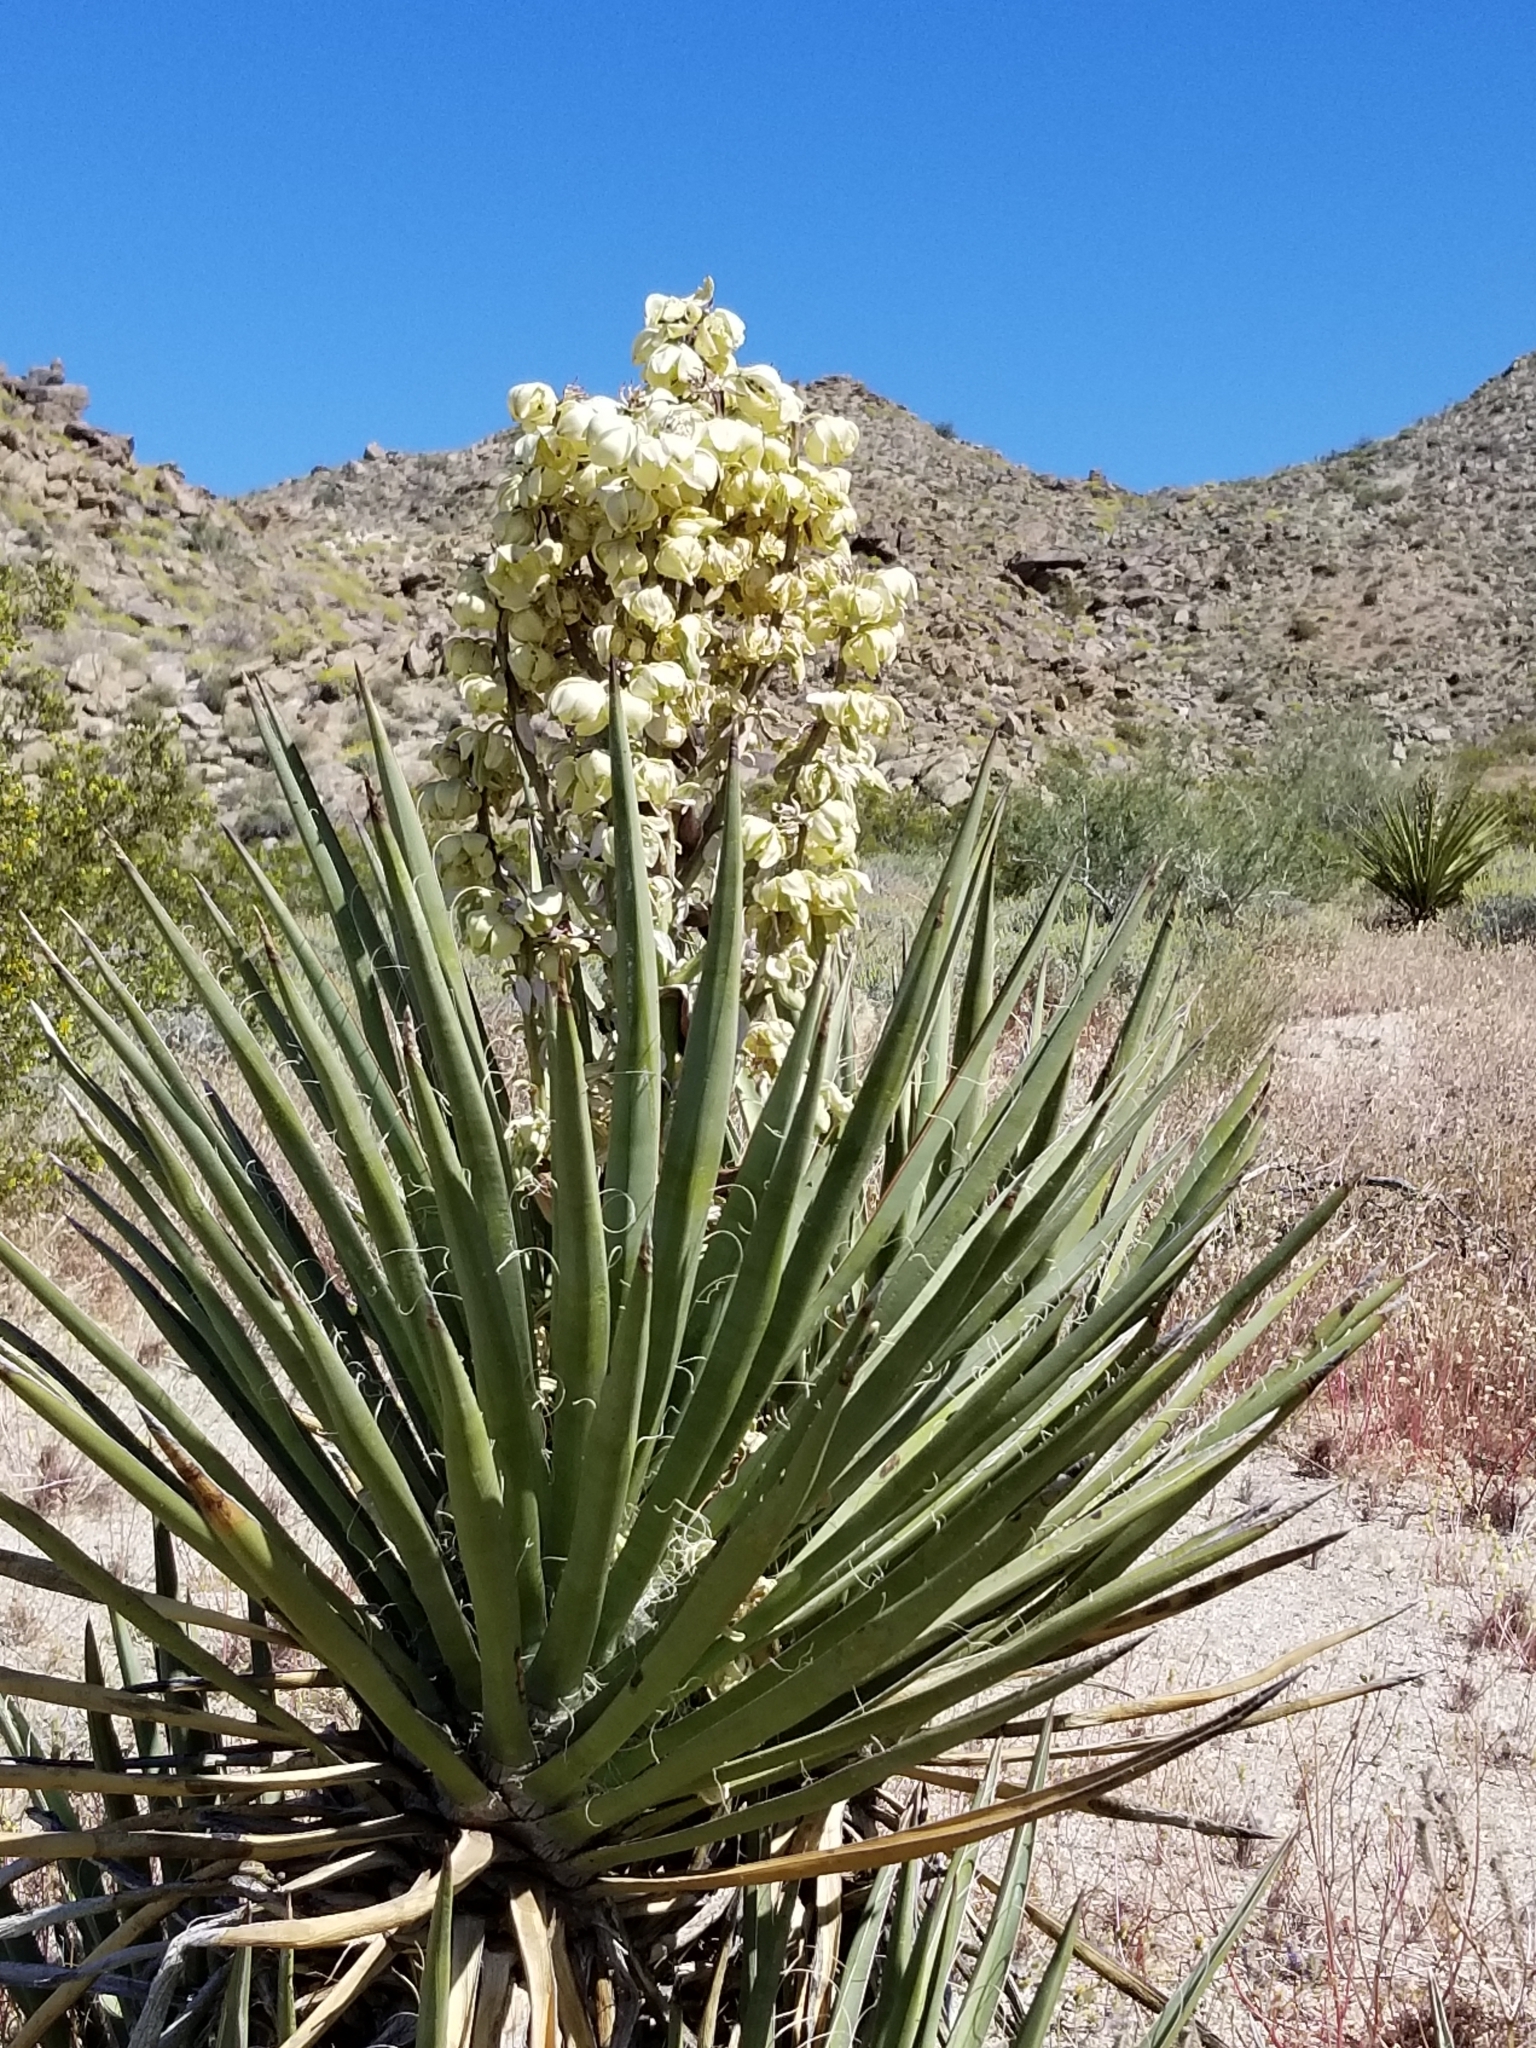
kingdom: Plantae
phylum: Tracheophyta
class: Liliopsida
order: Asparagales
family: Asparagaceae
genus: Yucca
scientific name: Yucca schidigera
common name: Mojave yucca
